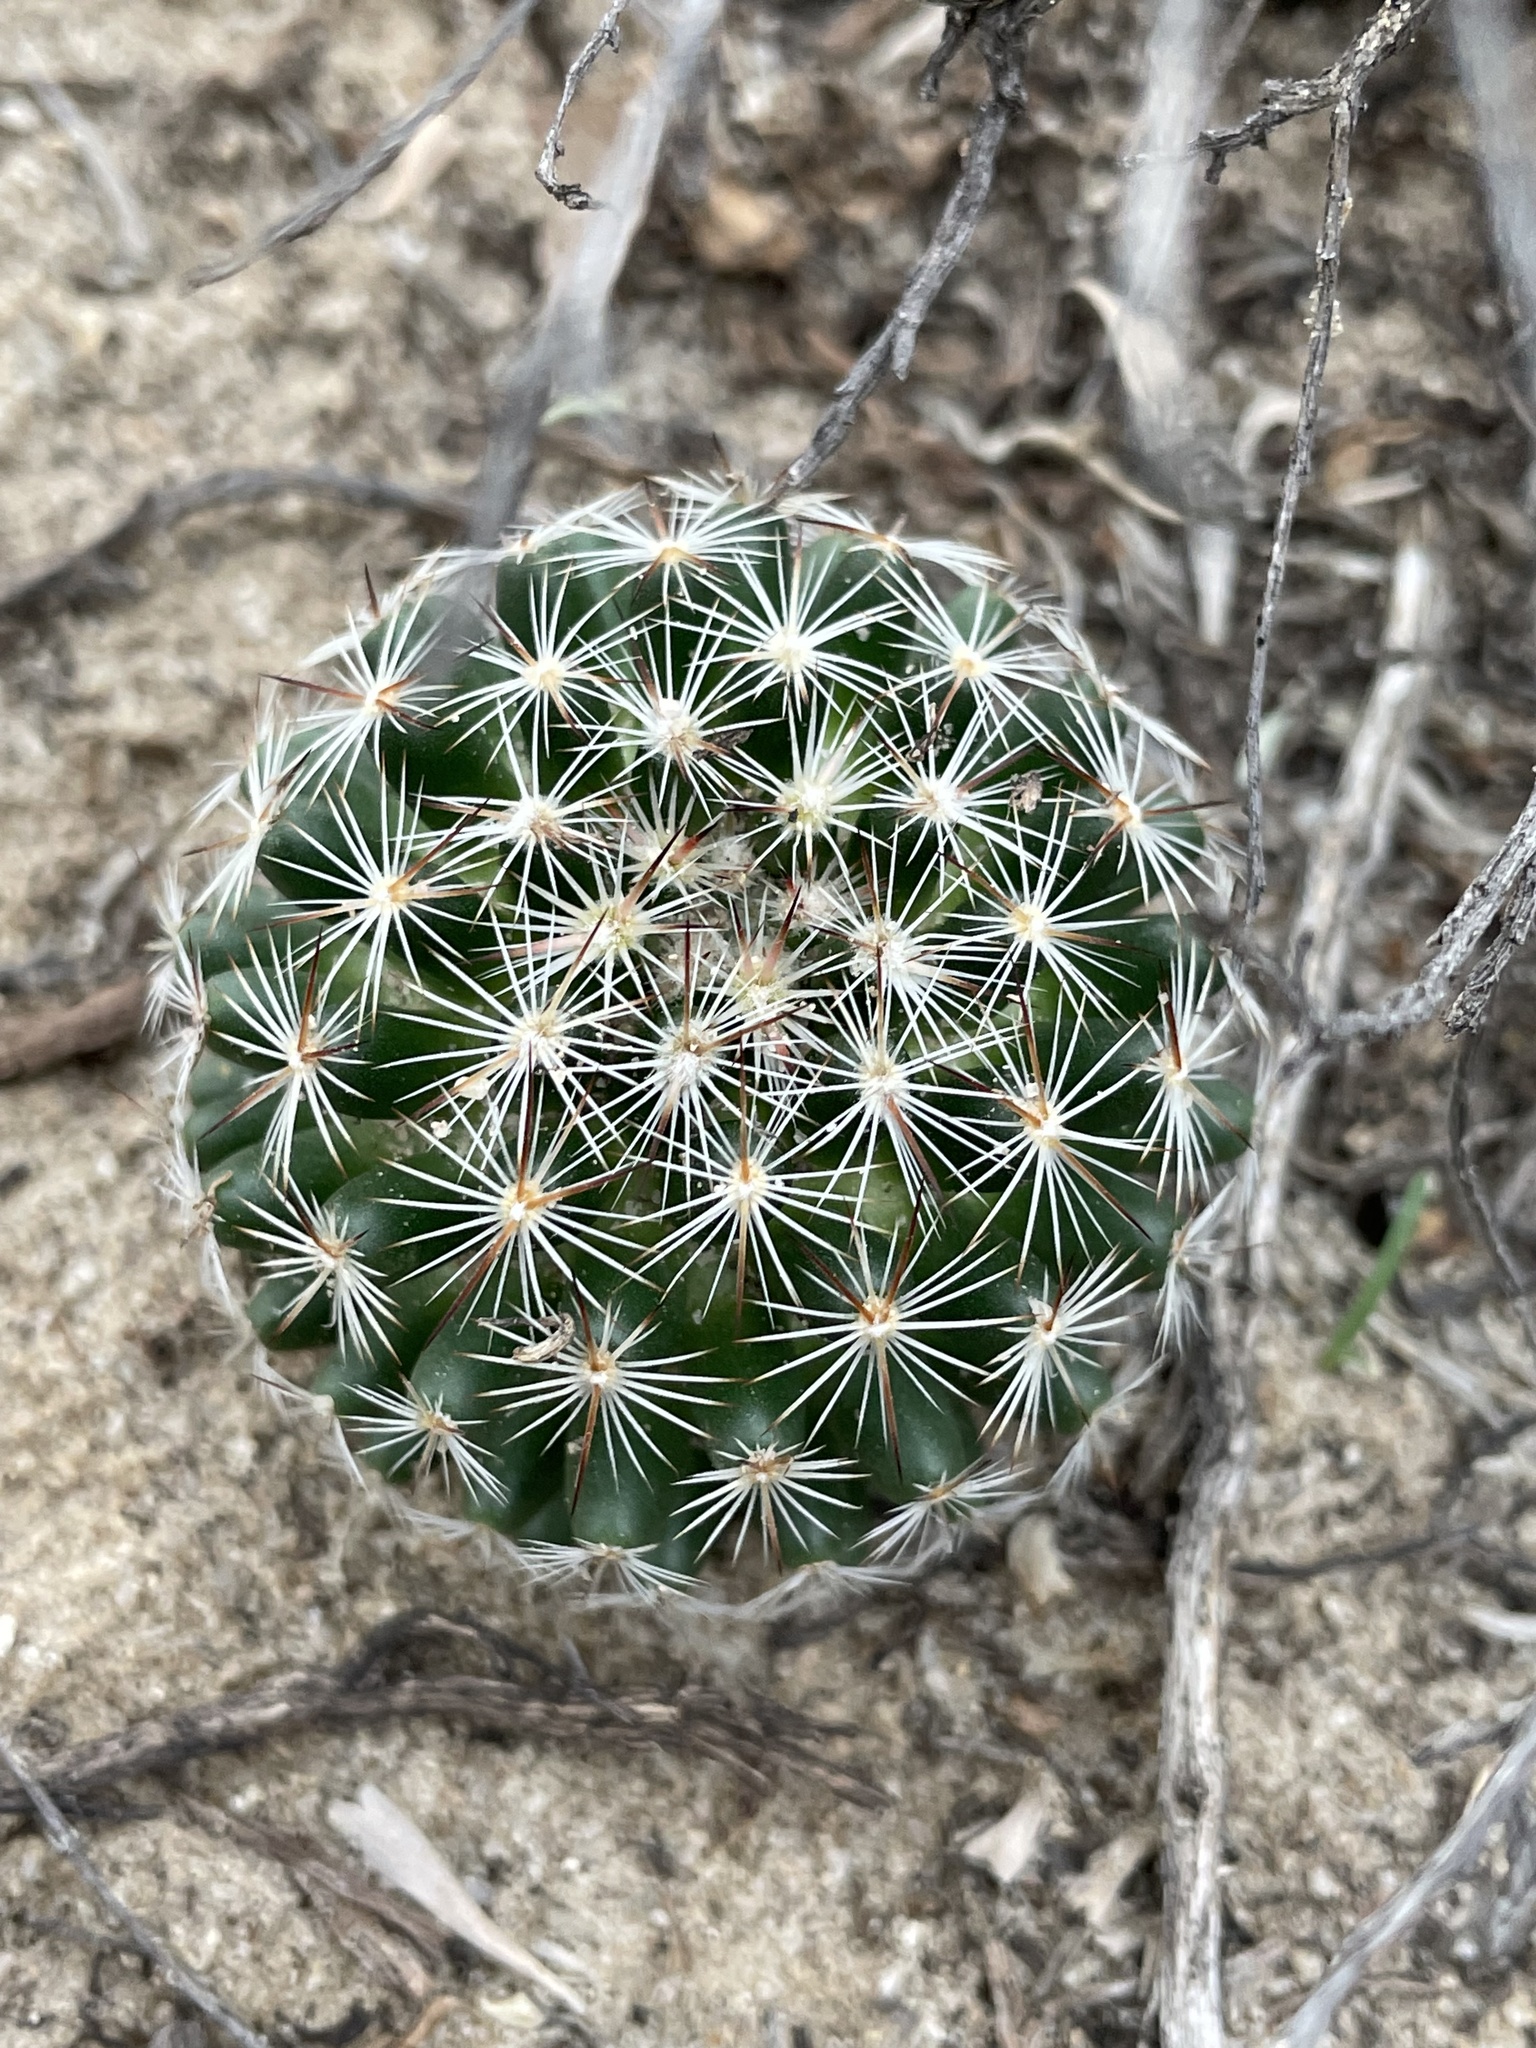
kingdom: Plantae
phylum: Tracheophyta
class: Magnoliopsida
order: Caryophyllales
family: Cactaceae
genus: Pelecyphora
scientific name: Pelecyphora vivipara
